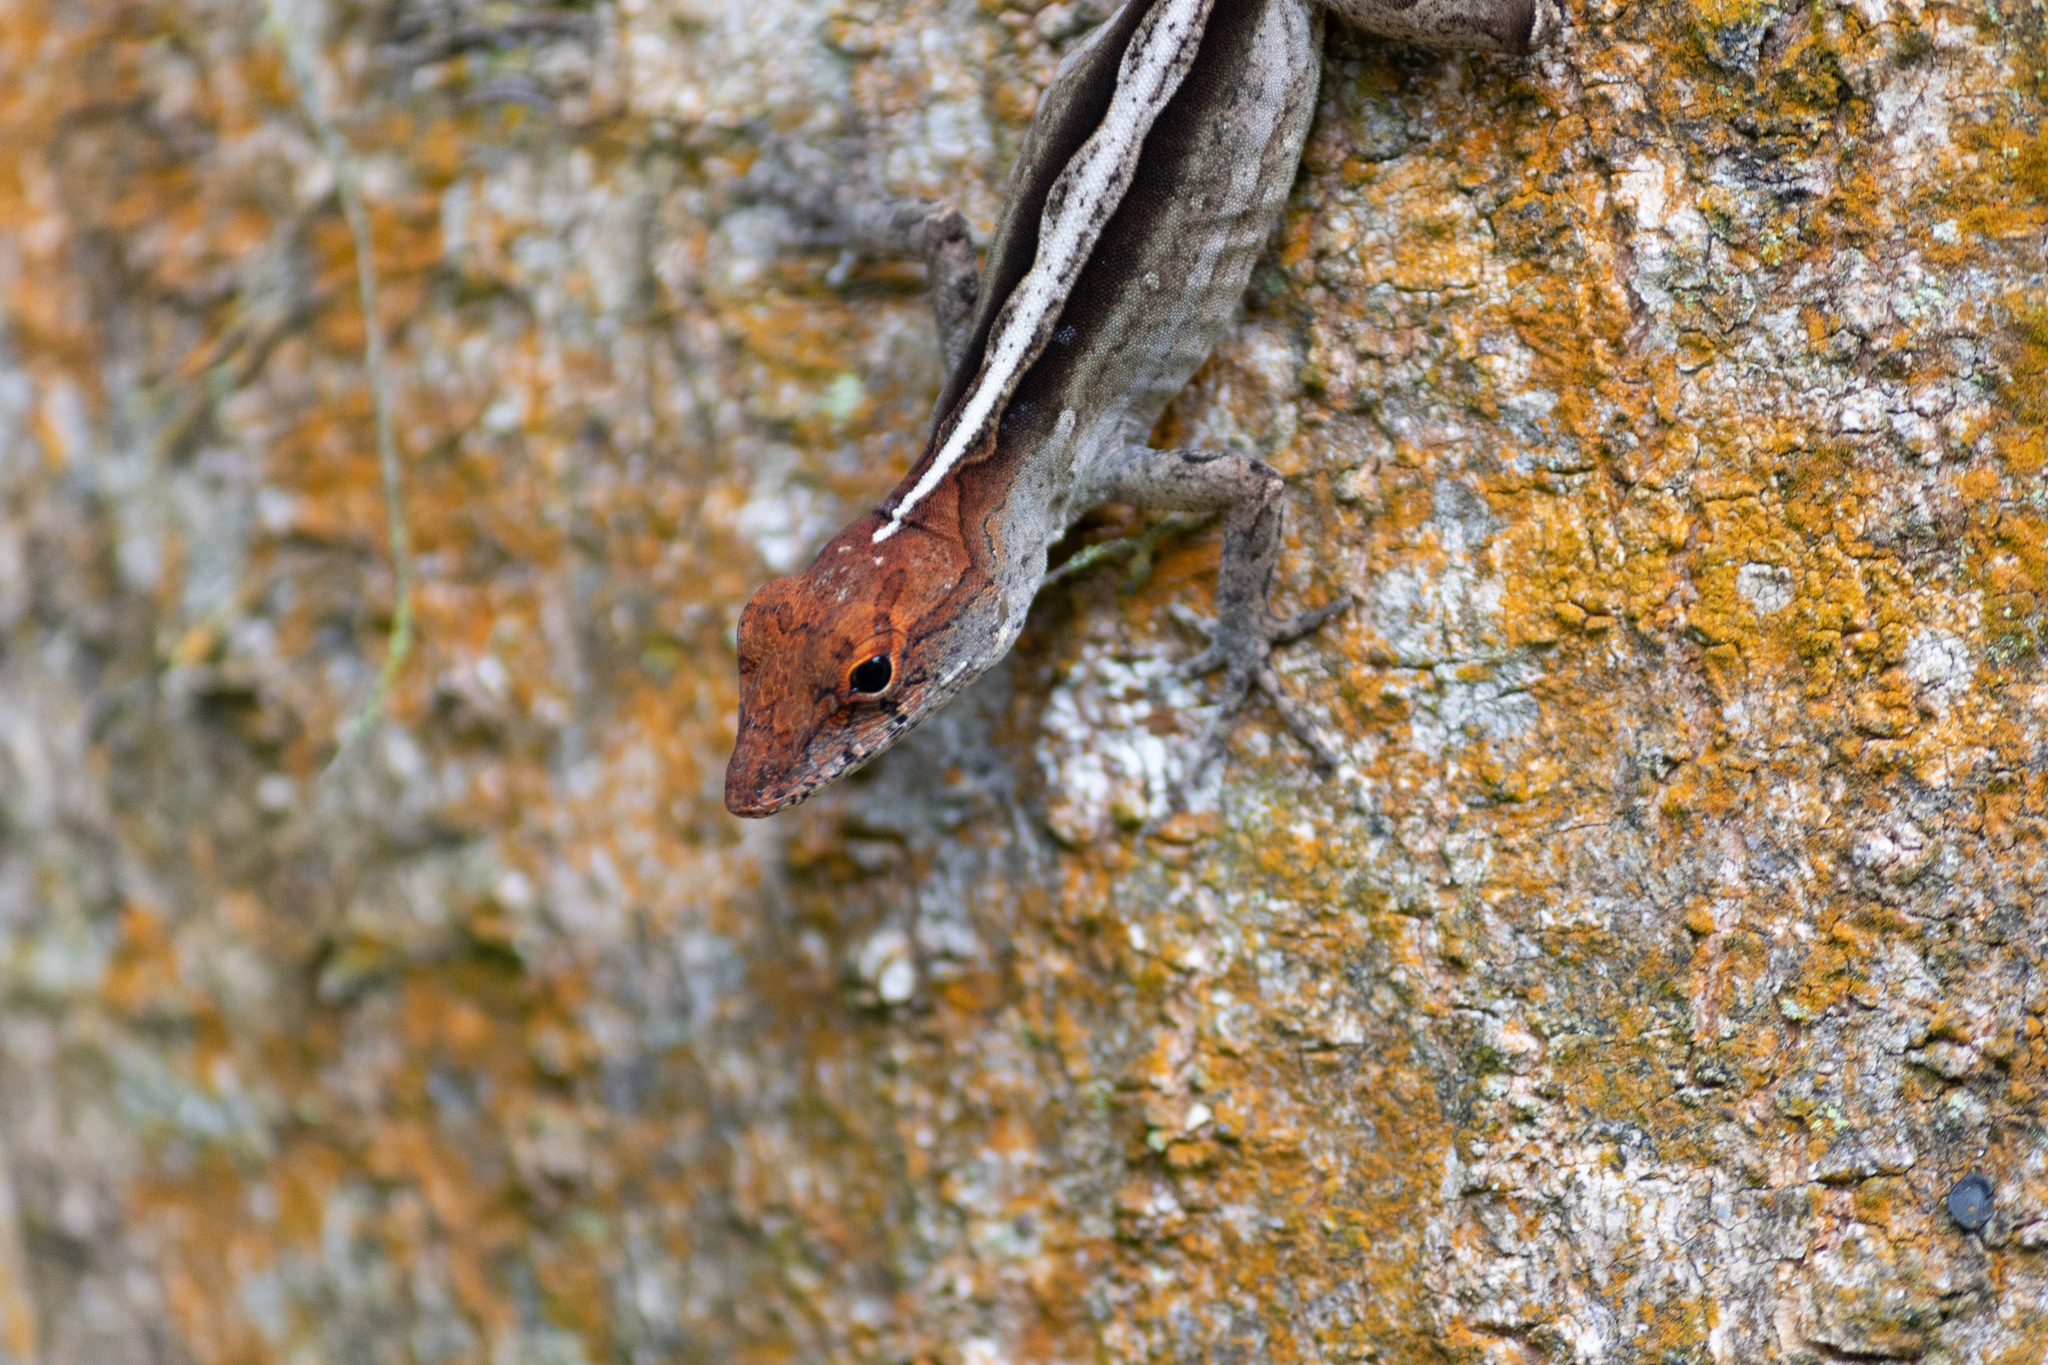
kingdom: Animalia
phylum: Chordata
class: Squamata
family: Dactyloidae
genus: Anolis
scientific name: Anolis sagrei
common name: Brown anole
